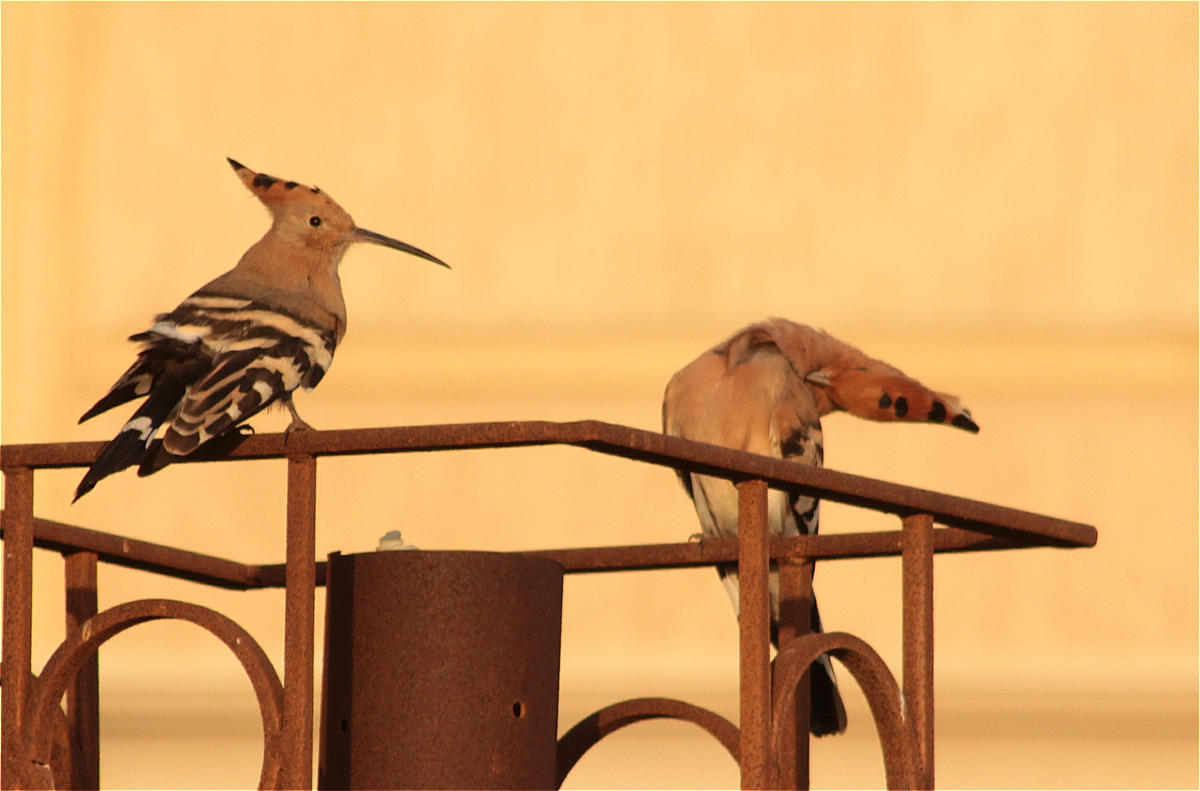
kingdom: Animalia
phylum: Chordata
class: Aves
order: Bucerotiformes
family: Upupidae
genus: Upupa
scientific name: Upupa epops
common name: Eurasian hoopoe
